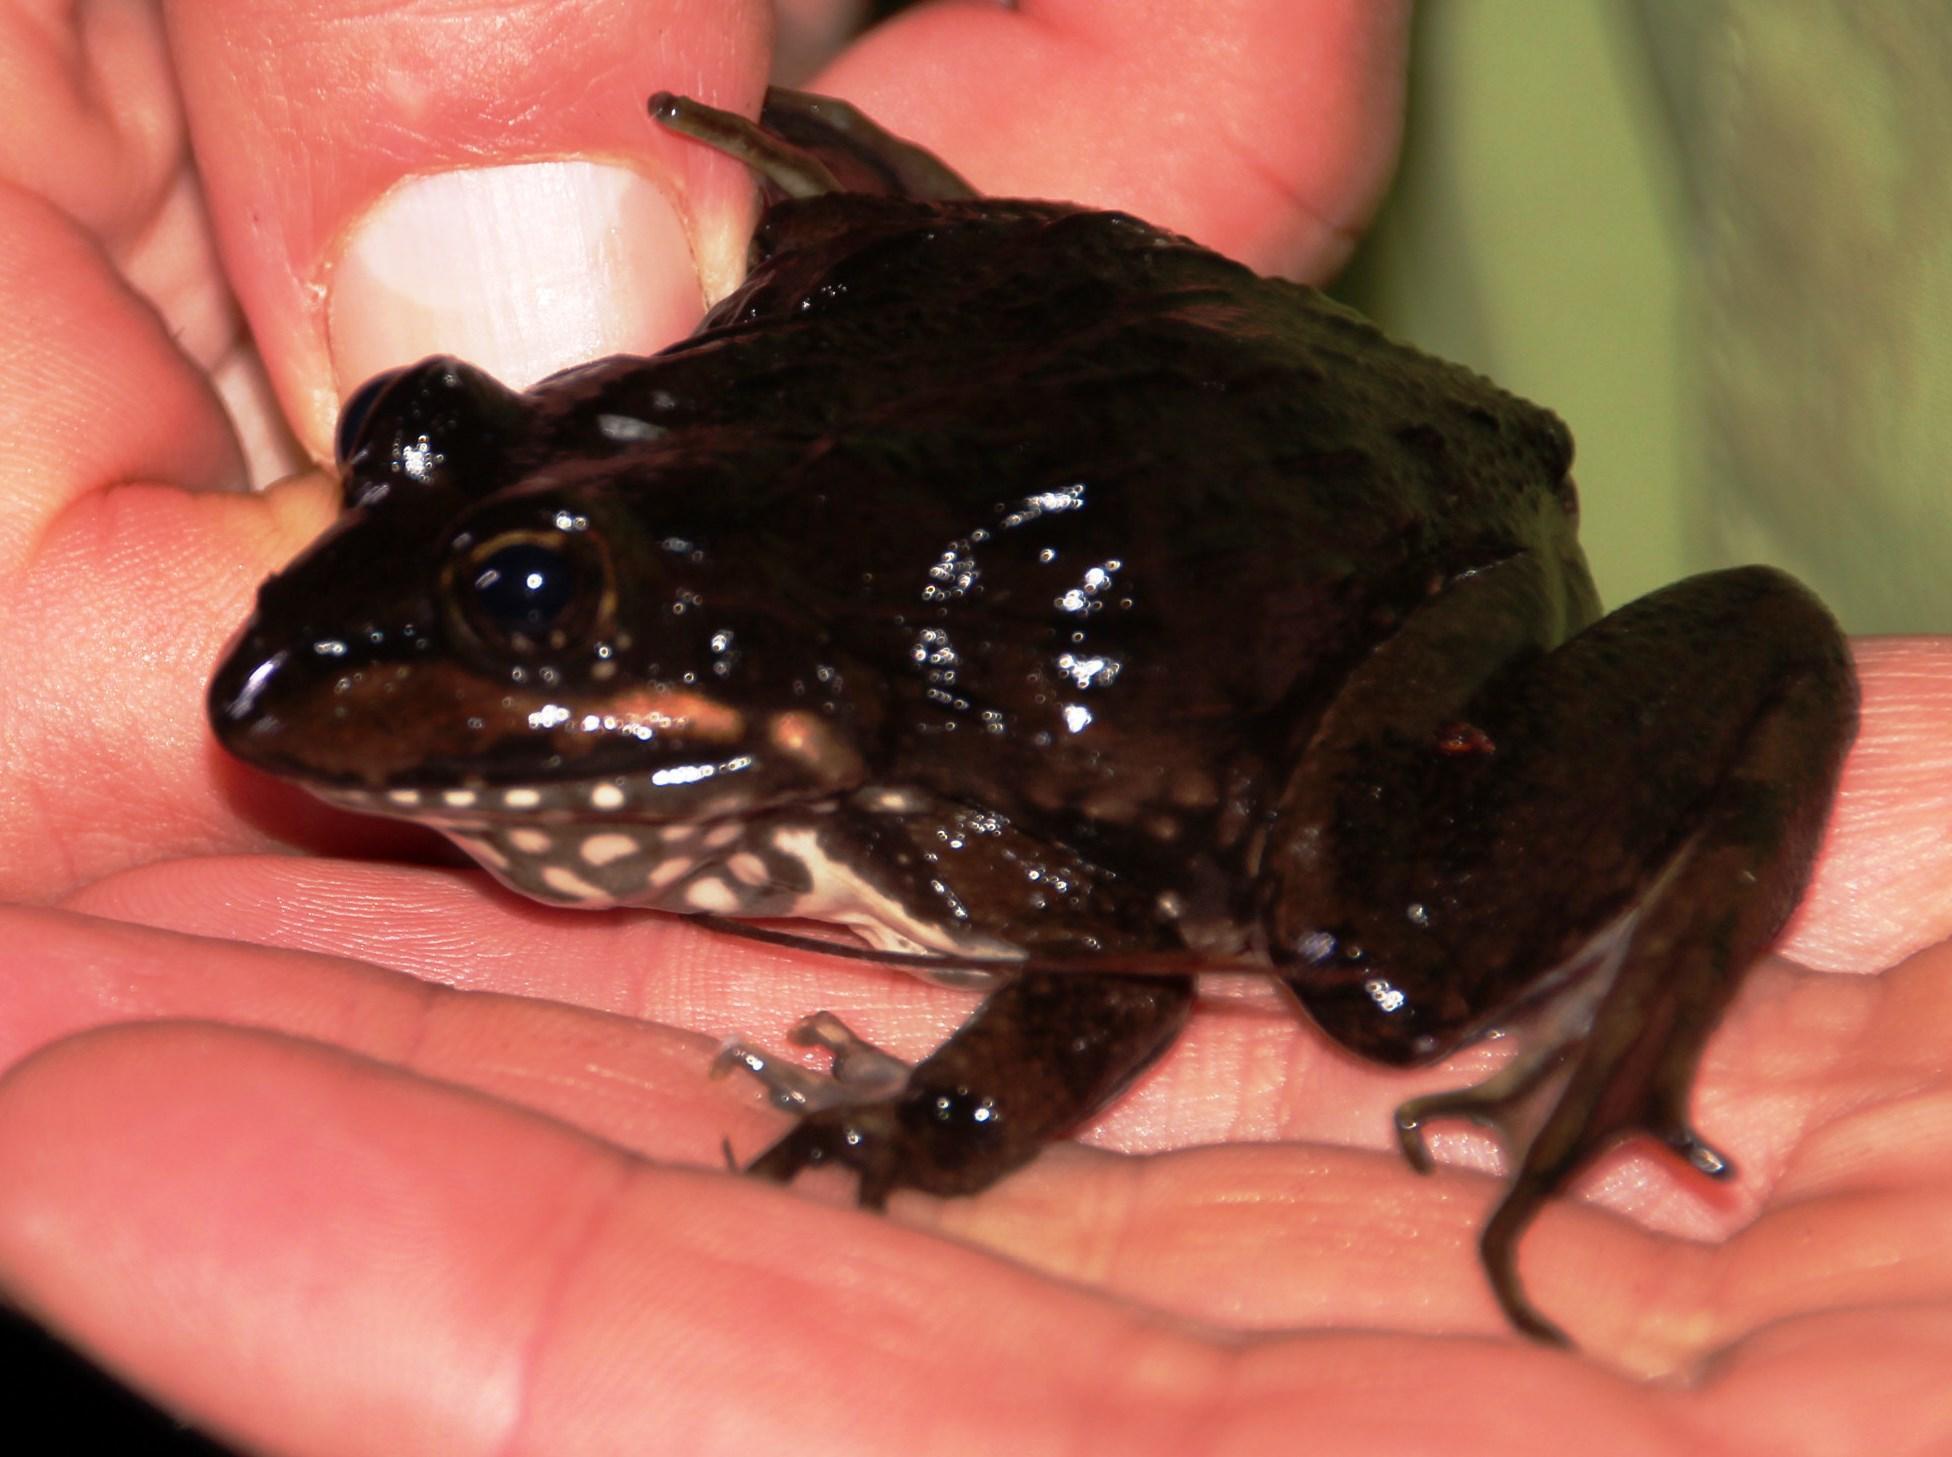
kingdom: Animalia
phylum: Chordata
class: Amphibia
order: Anura
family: Pyxicephalidae
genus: Amietia
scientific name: Amietia fuscigula
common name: Cape rana
